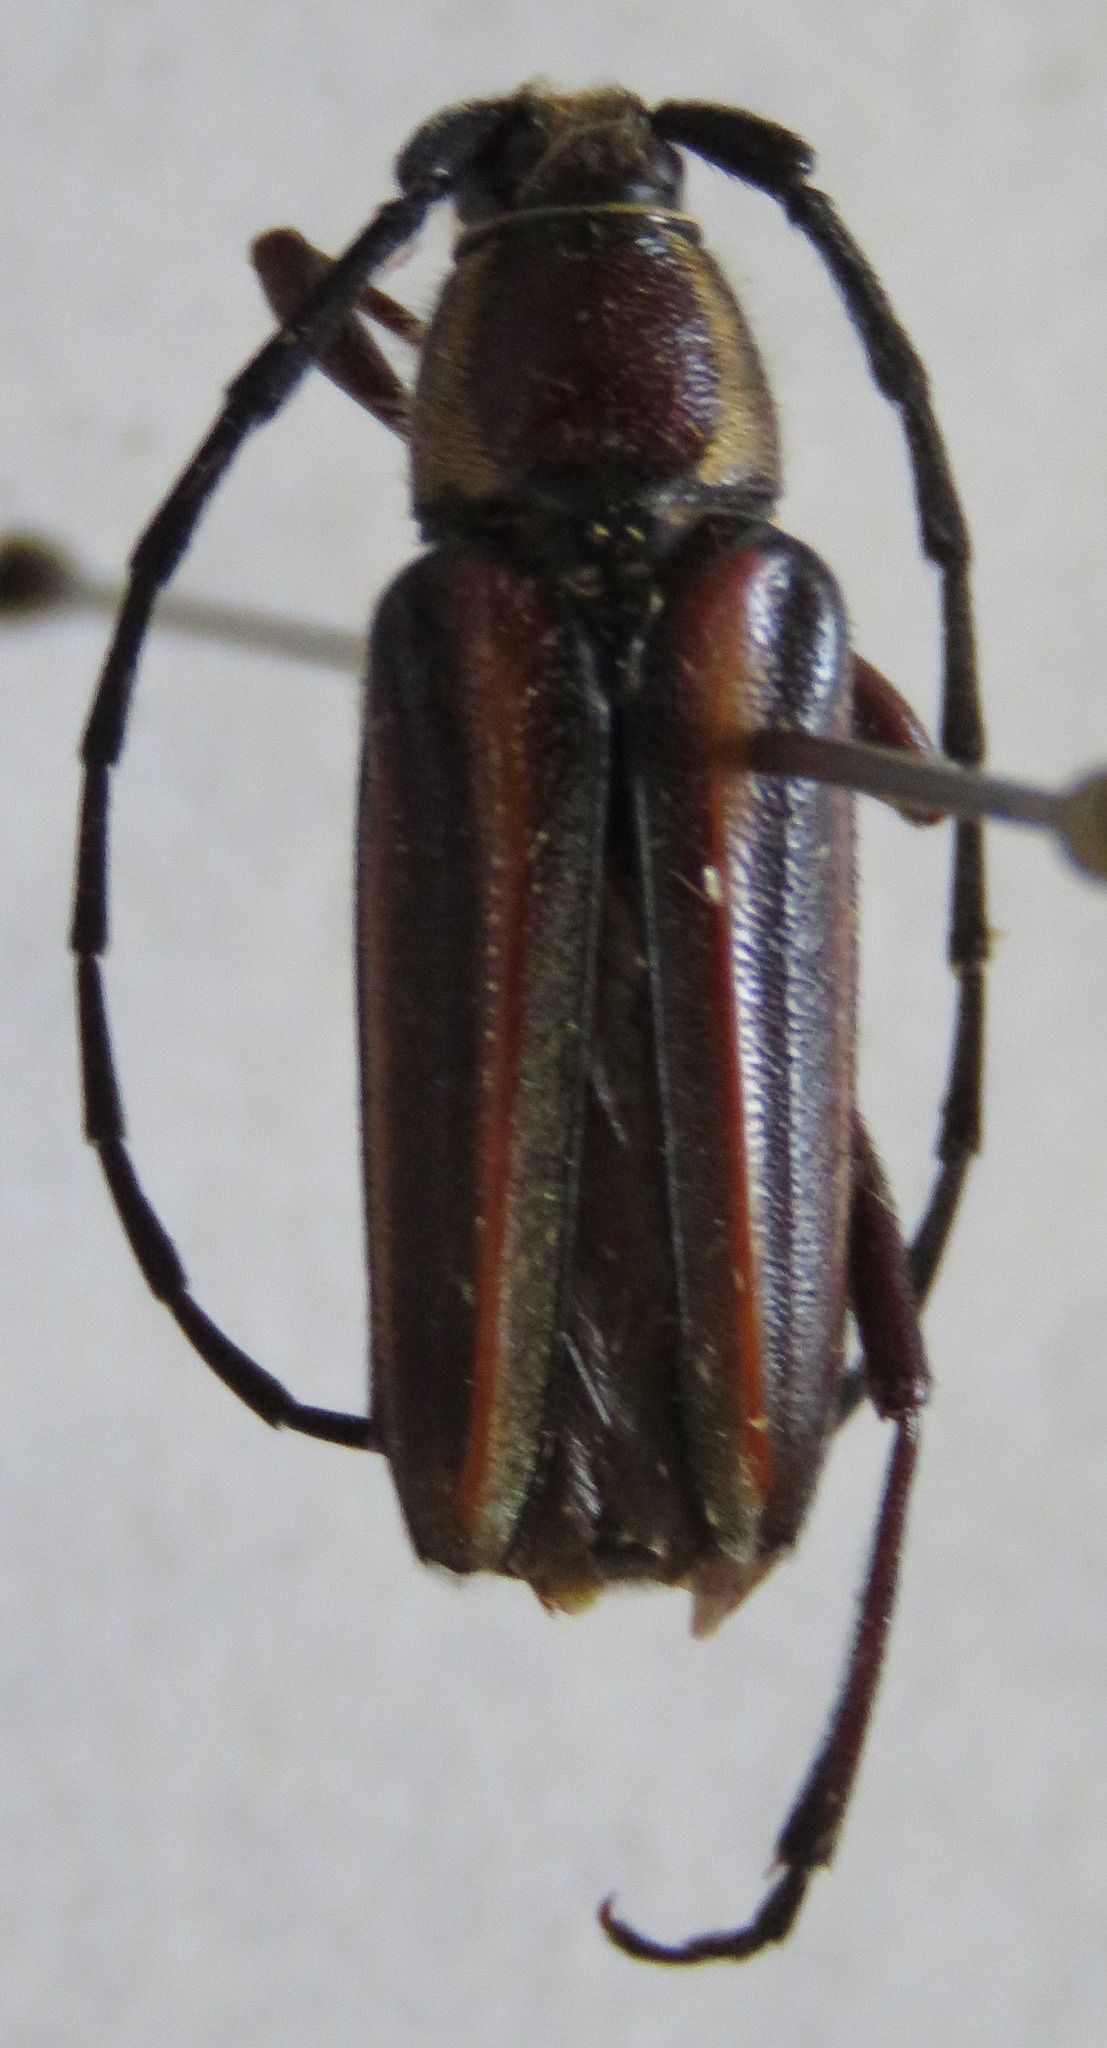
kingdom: Animalia
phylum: Arthropoda
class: Insecta
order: Coleoptera
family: Cerambycidae
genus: Sphaenothecus
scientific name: Sphaenothecus bilineatus
